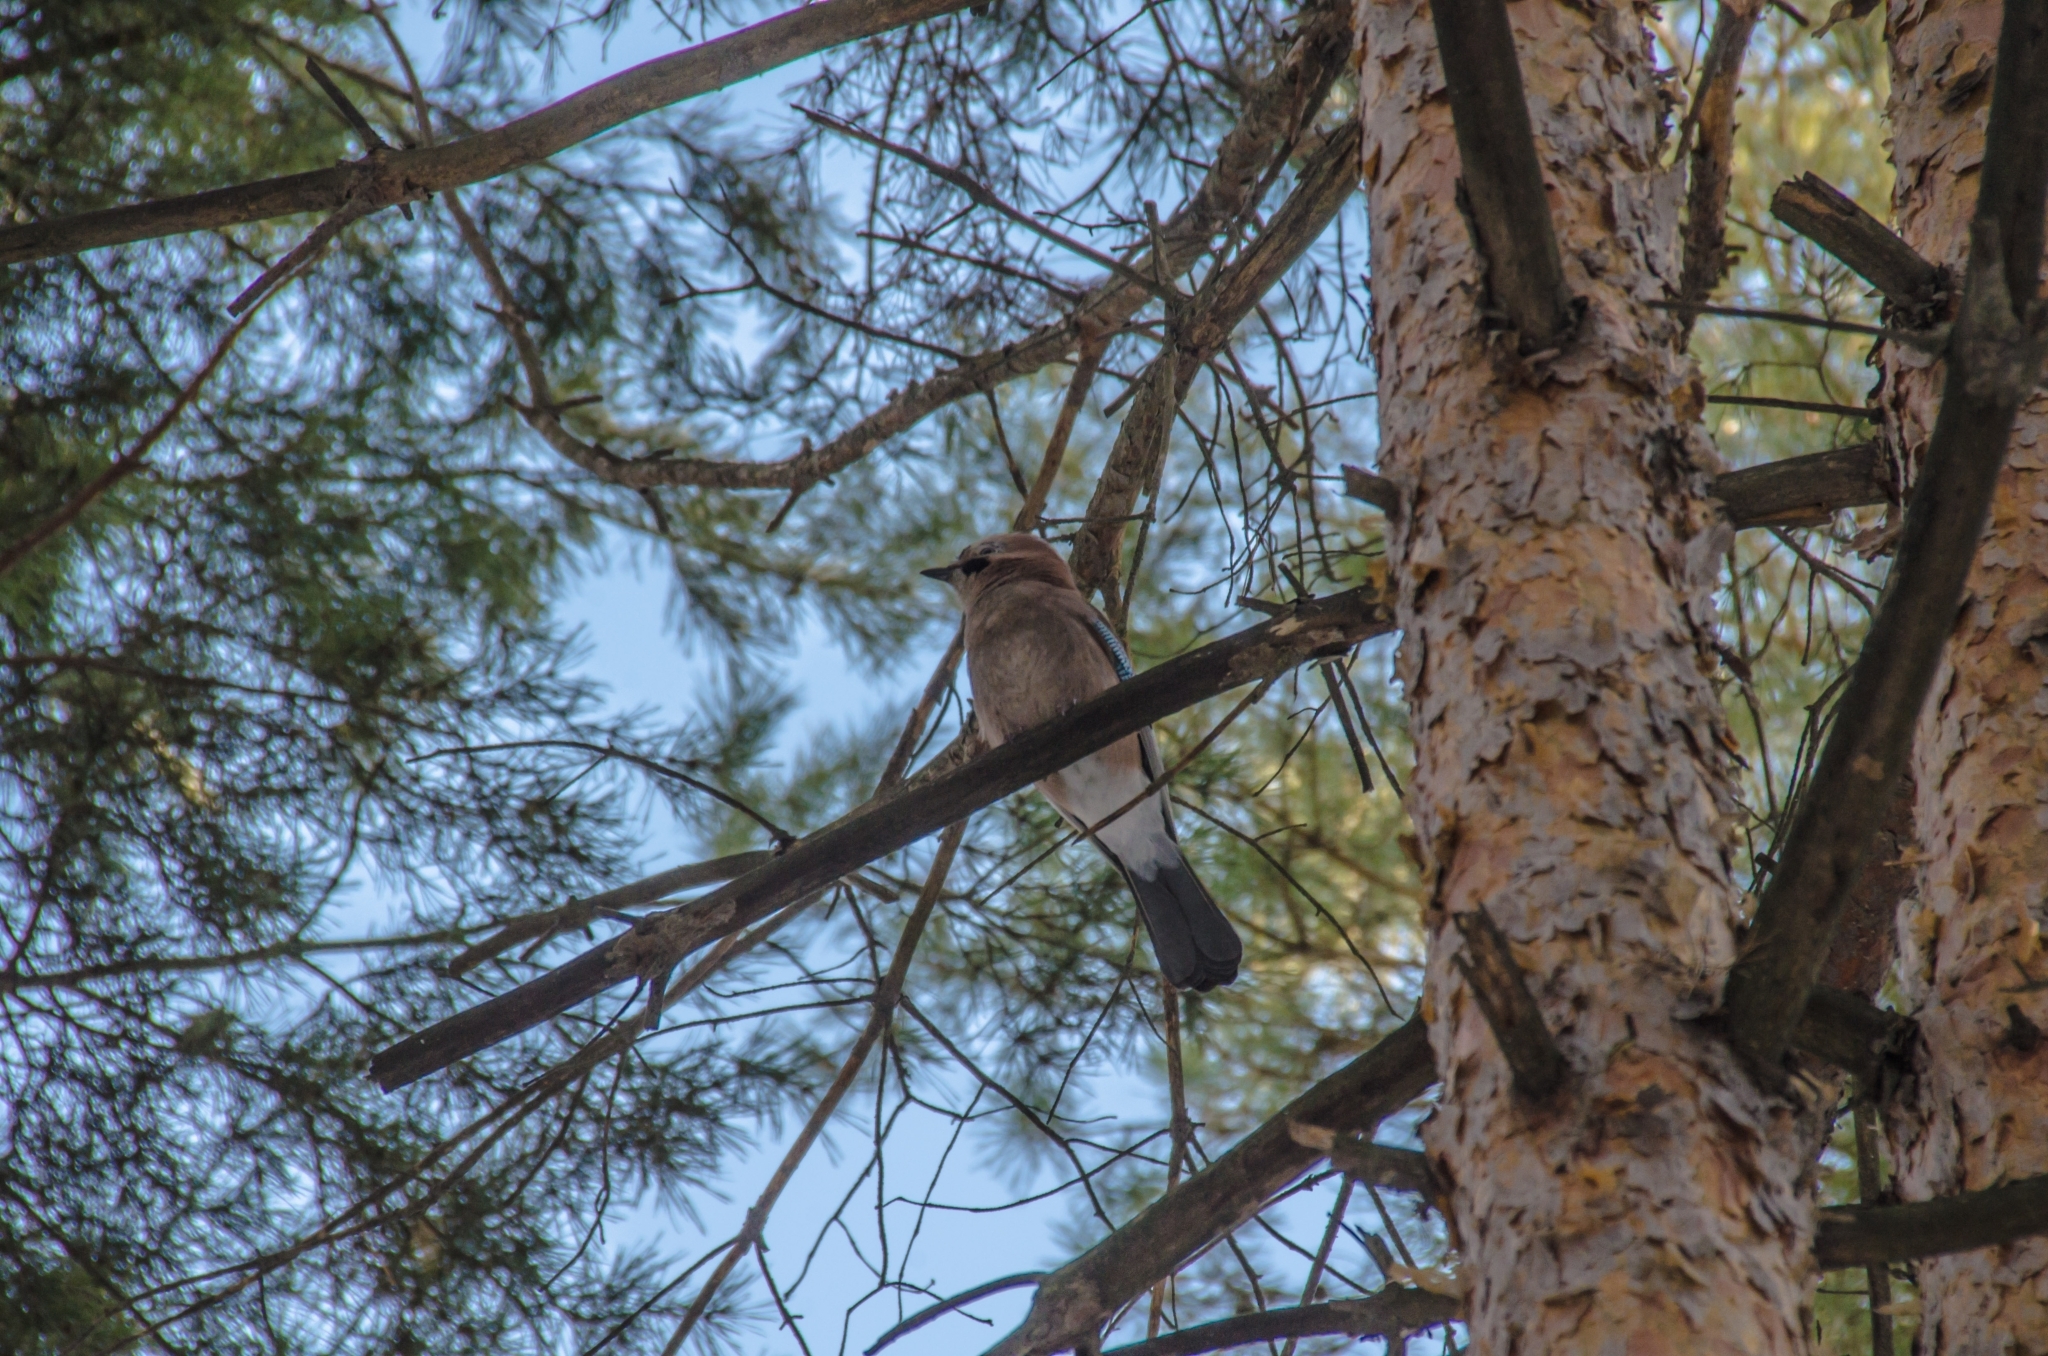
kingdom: Animalia
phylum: Chordata
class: Aves
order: Passeriformes
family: Corvidae
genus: Garrulus
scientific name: Garrulus glandarius
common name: Eurasian jay
